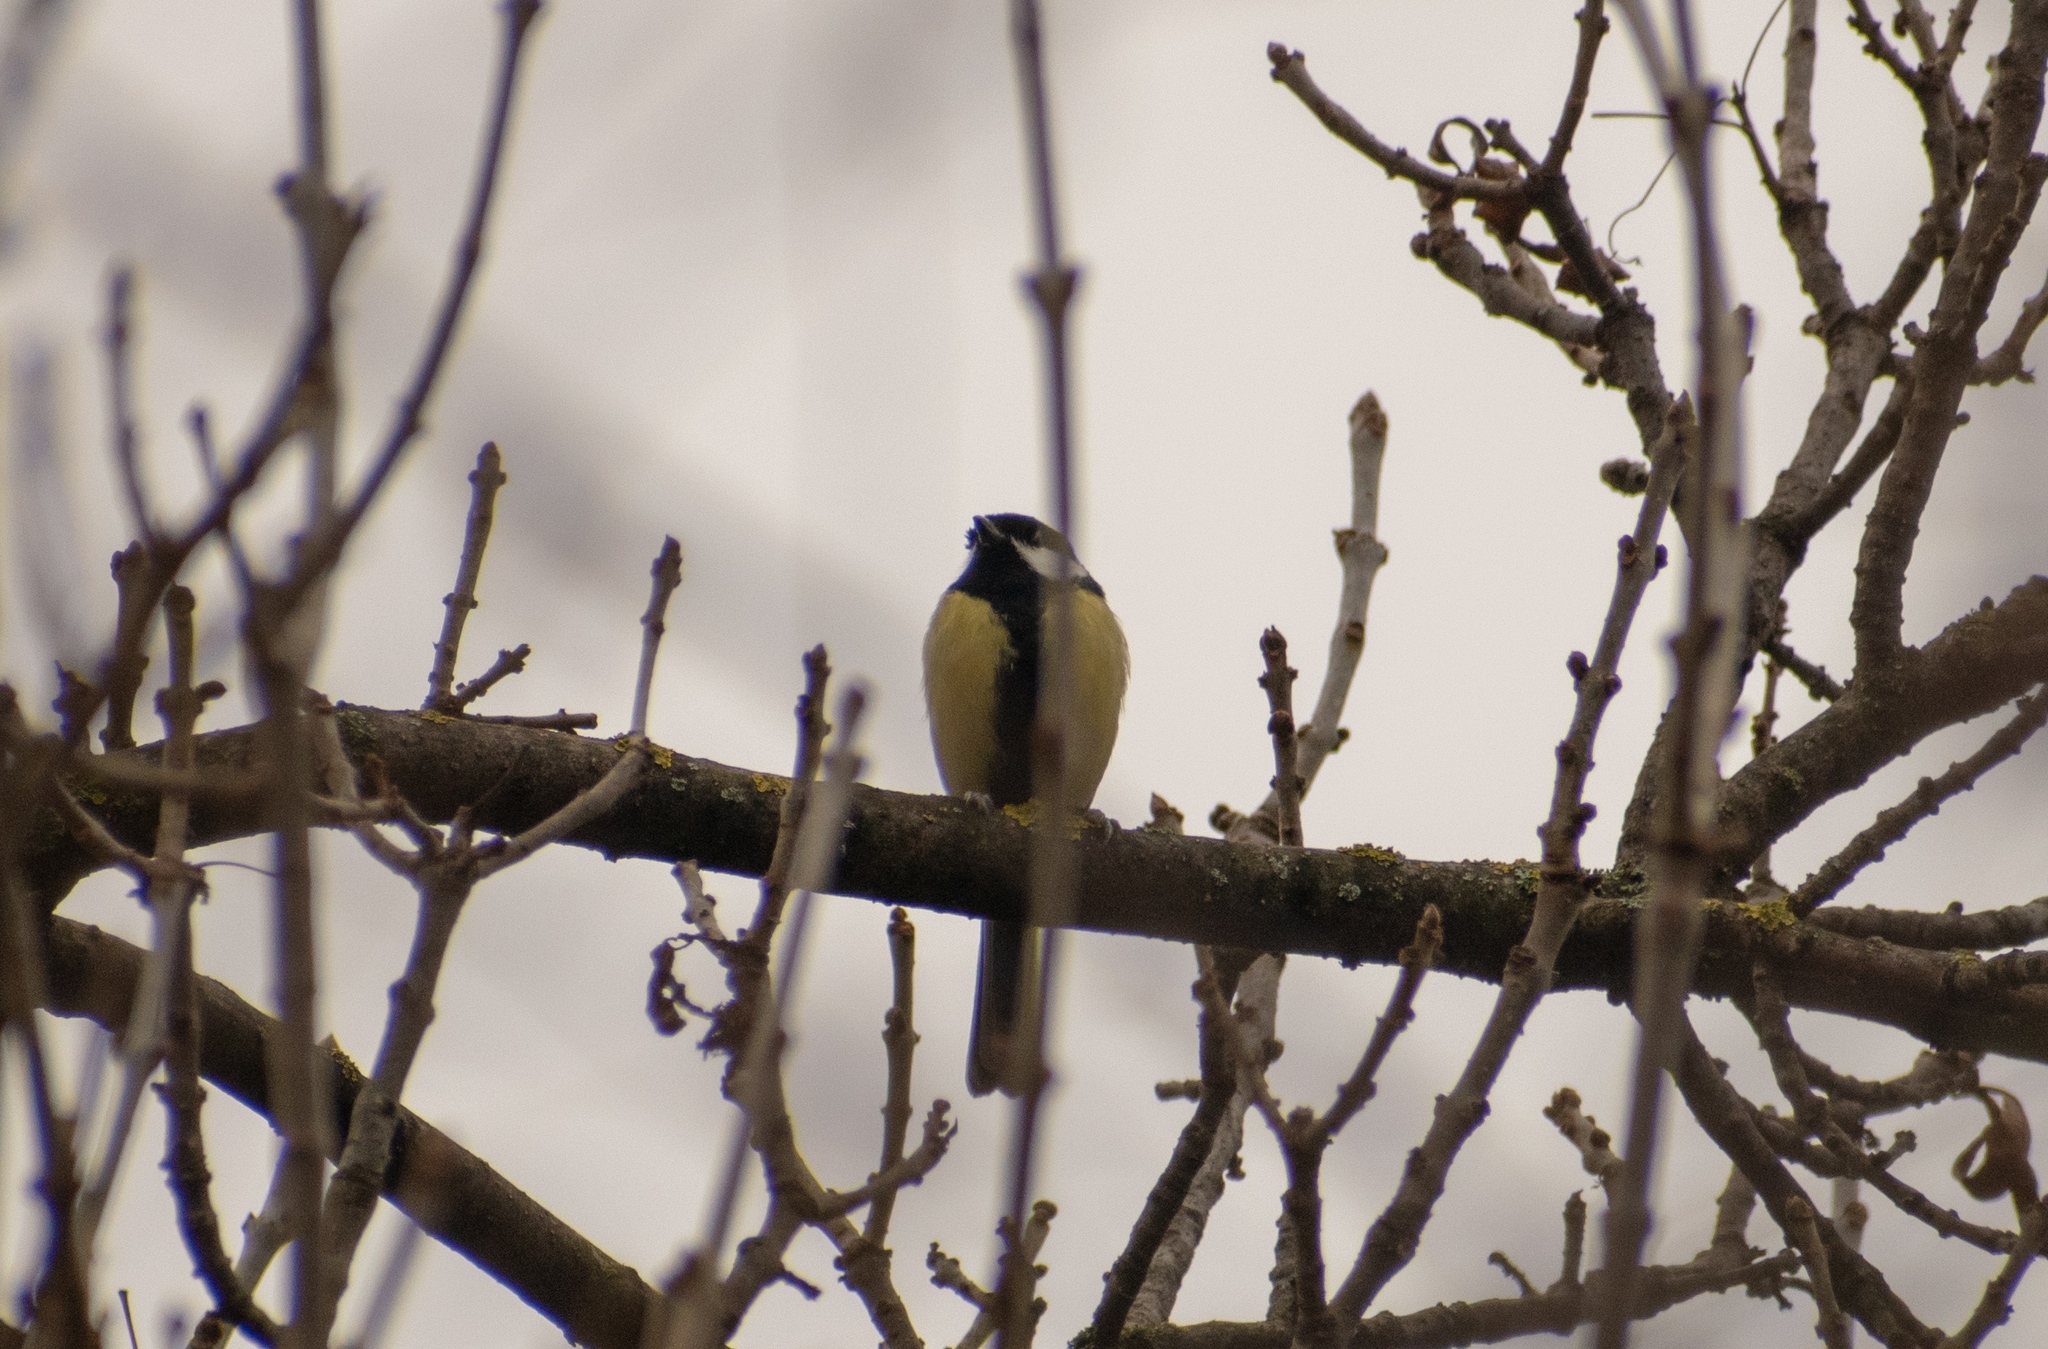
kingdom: Animalia
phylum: Chordata
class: Aves
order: Passeriformes
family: Paridae
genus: Parus
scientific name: Parus major
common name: Great tit
